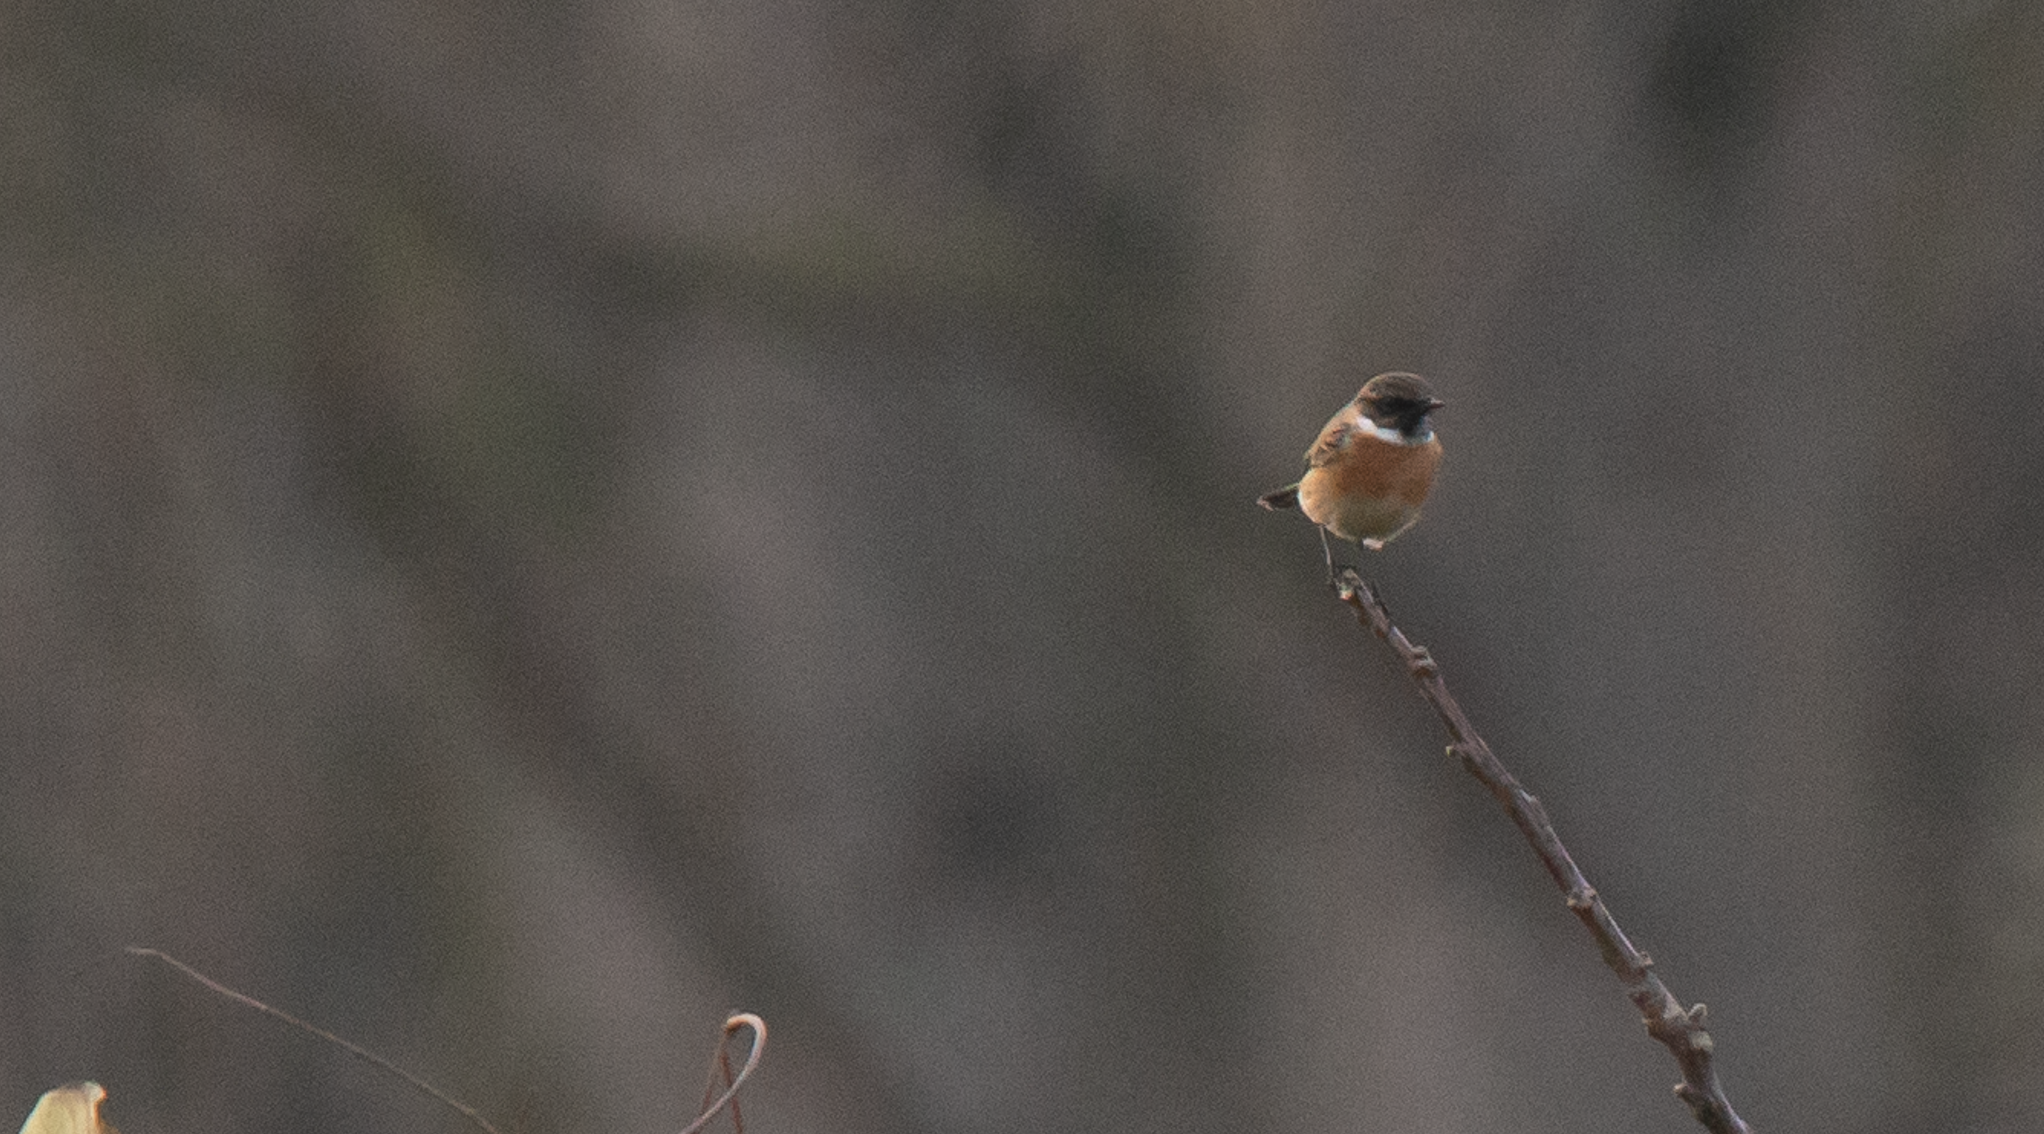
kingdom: Animalia
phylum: Chordata
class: Aves
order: Passeriformes
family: Muscicapidae
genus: Saxicola
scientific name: Saxicola rubicola
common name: European stonechat
